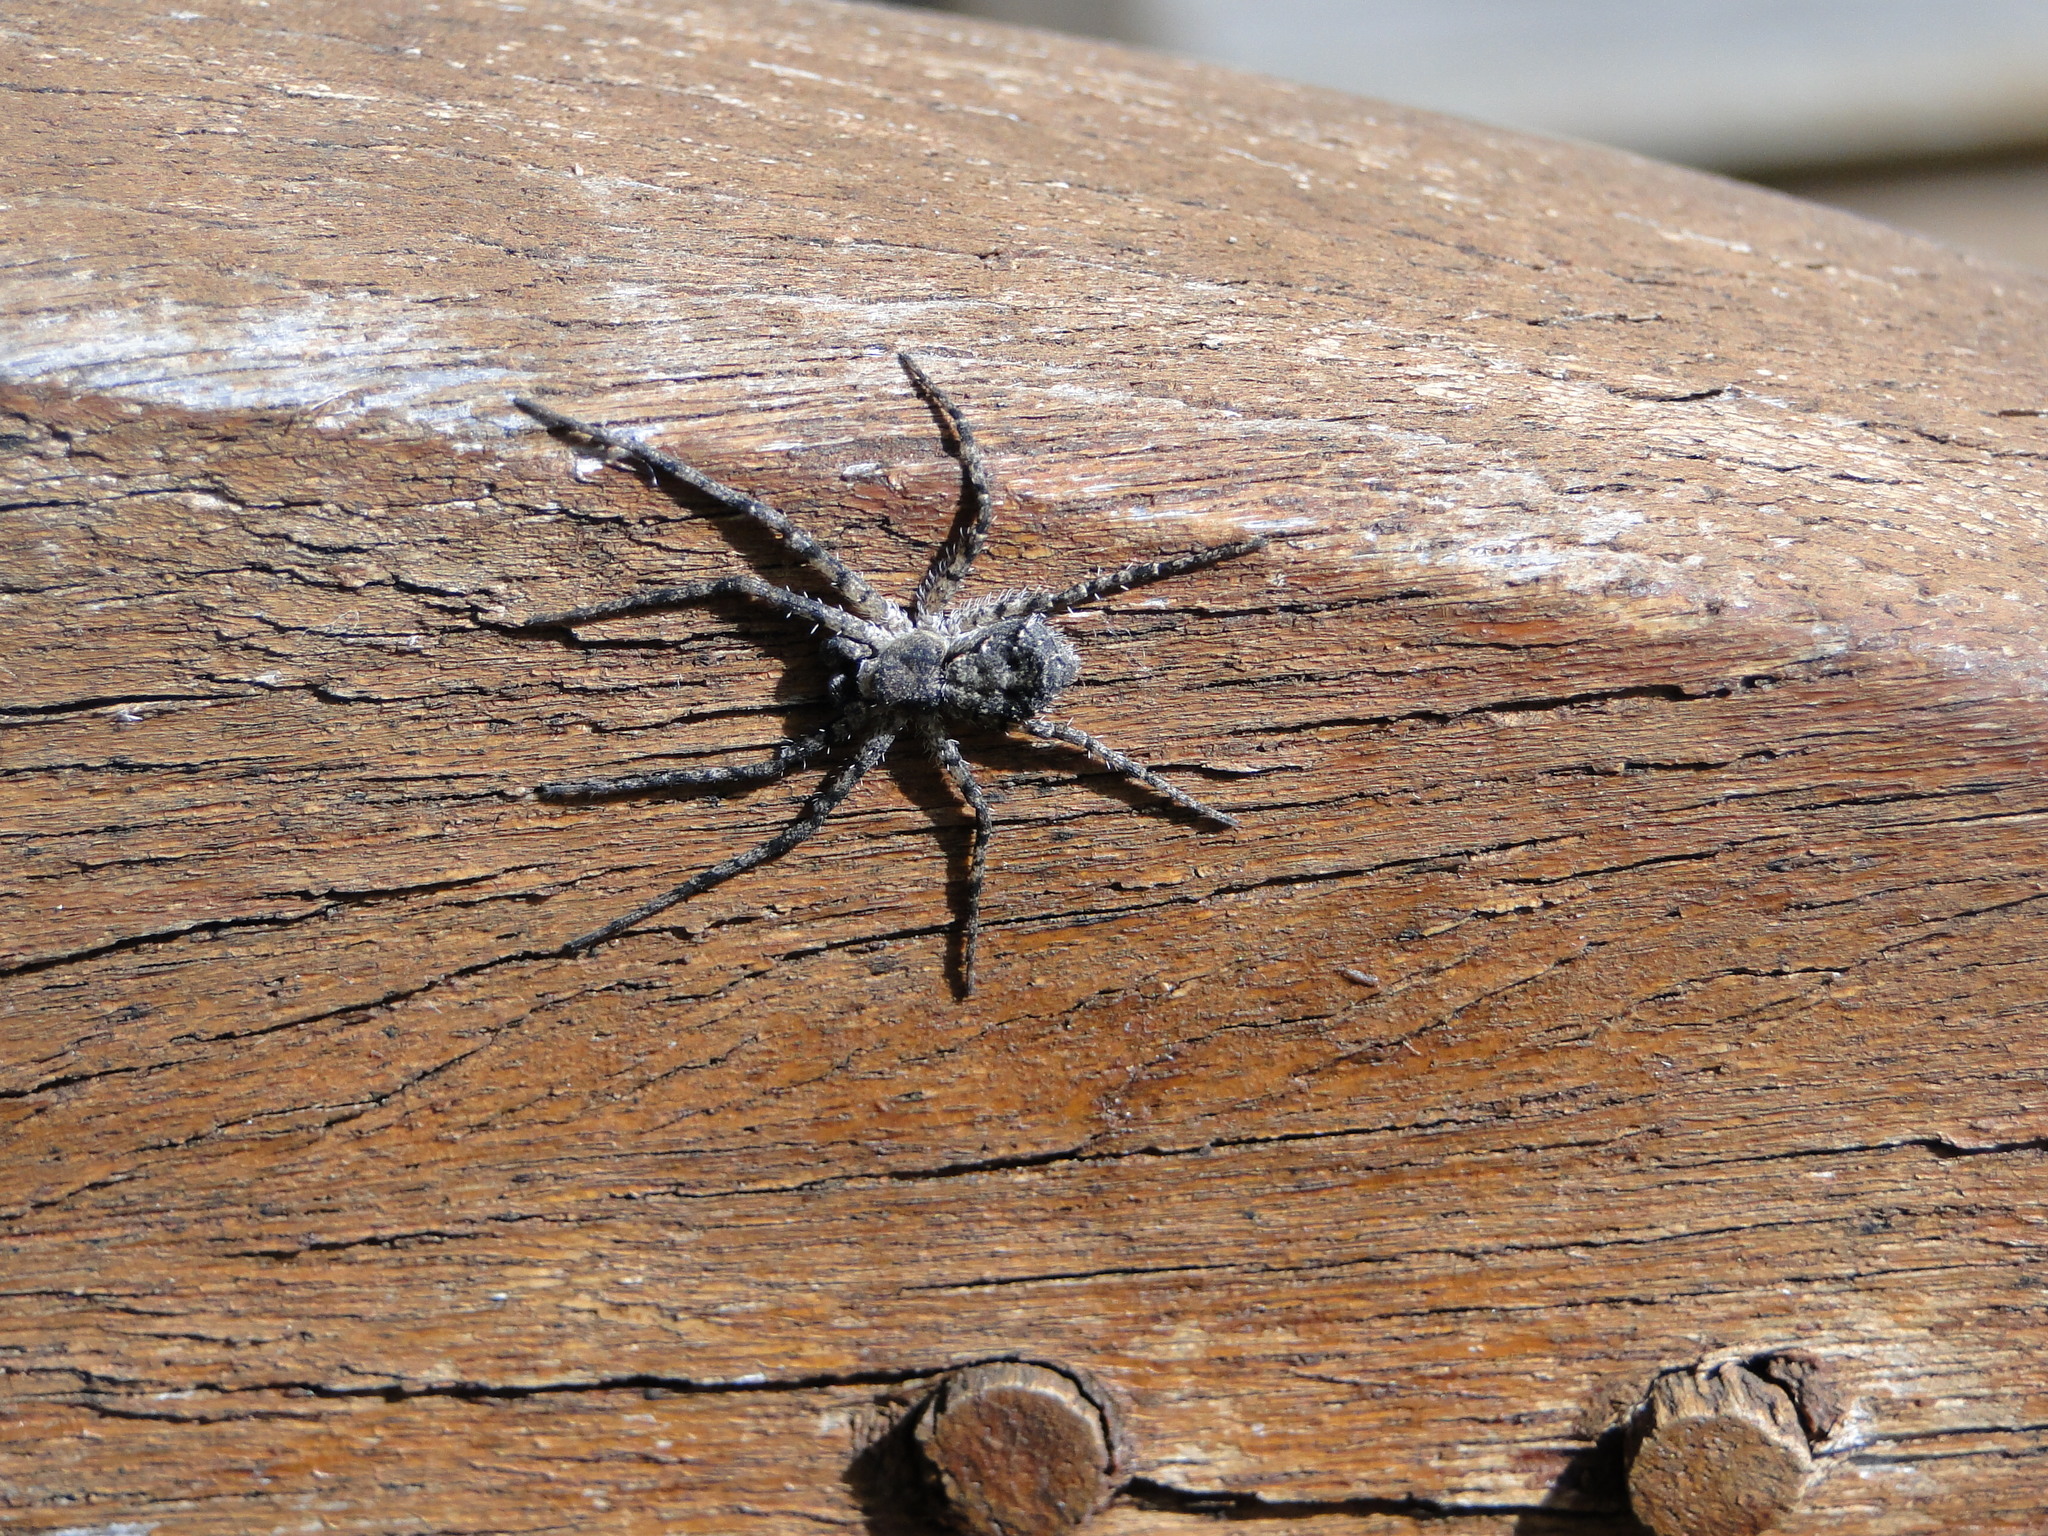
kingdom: Animalia
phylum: Arthropoda
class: Arachnida
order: Araneae
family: Philodromidae
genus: Philodromus
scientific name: Philodromus margaritatus
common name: Lichen running-spider
